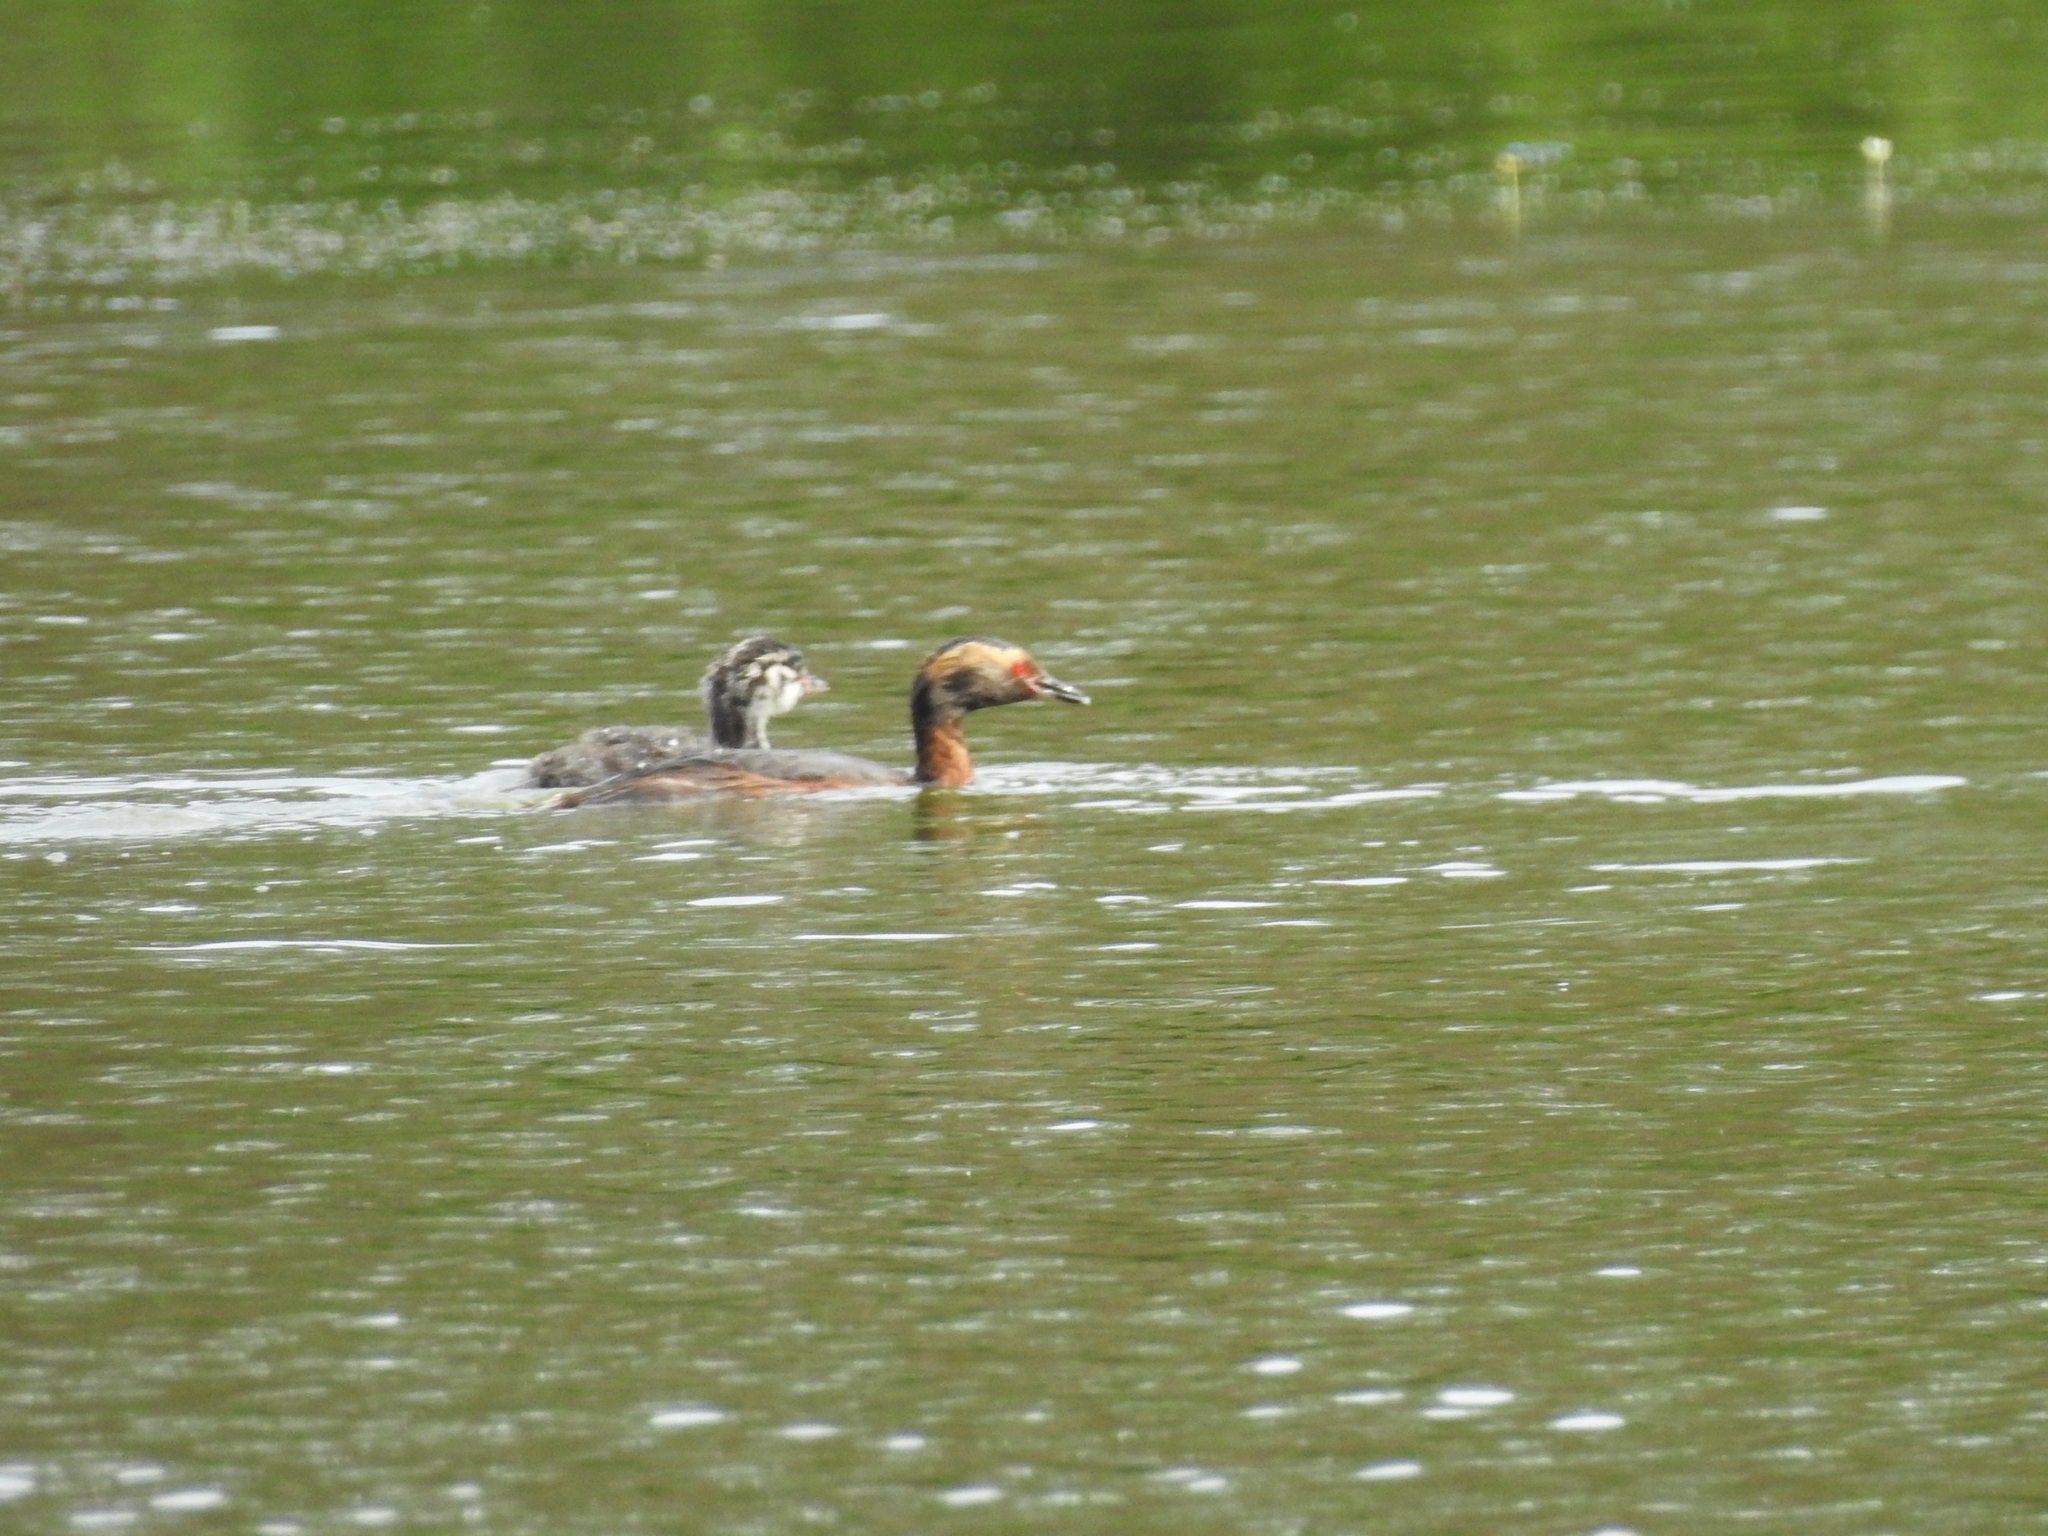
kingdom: Animalia
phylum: Chordata
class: Aves
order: Podicipediformes
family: Podicipedidae
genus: Podiceps
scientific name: Podiceps auritus
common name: Horned grebe
